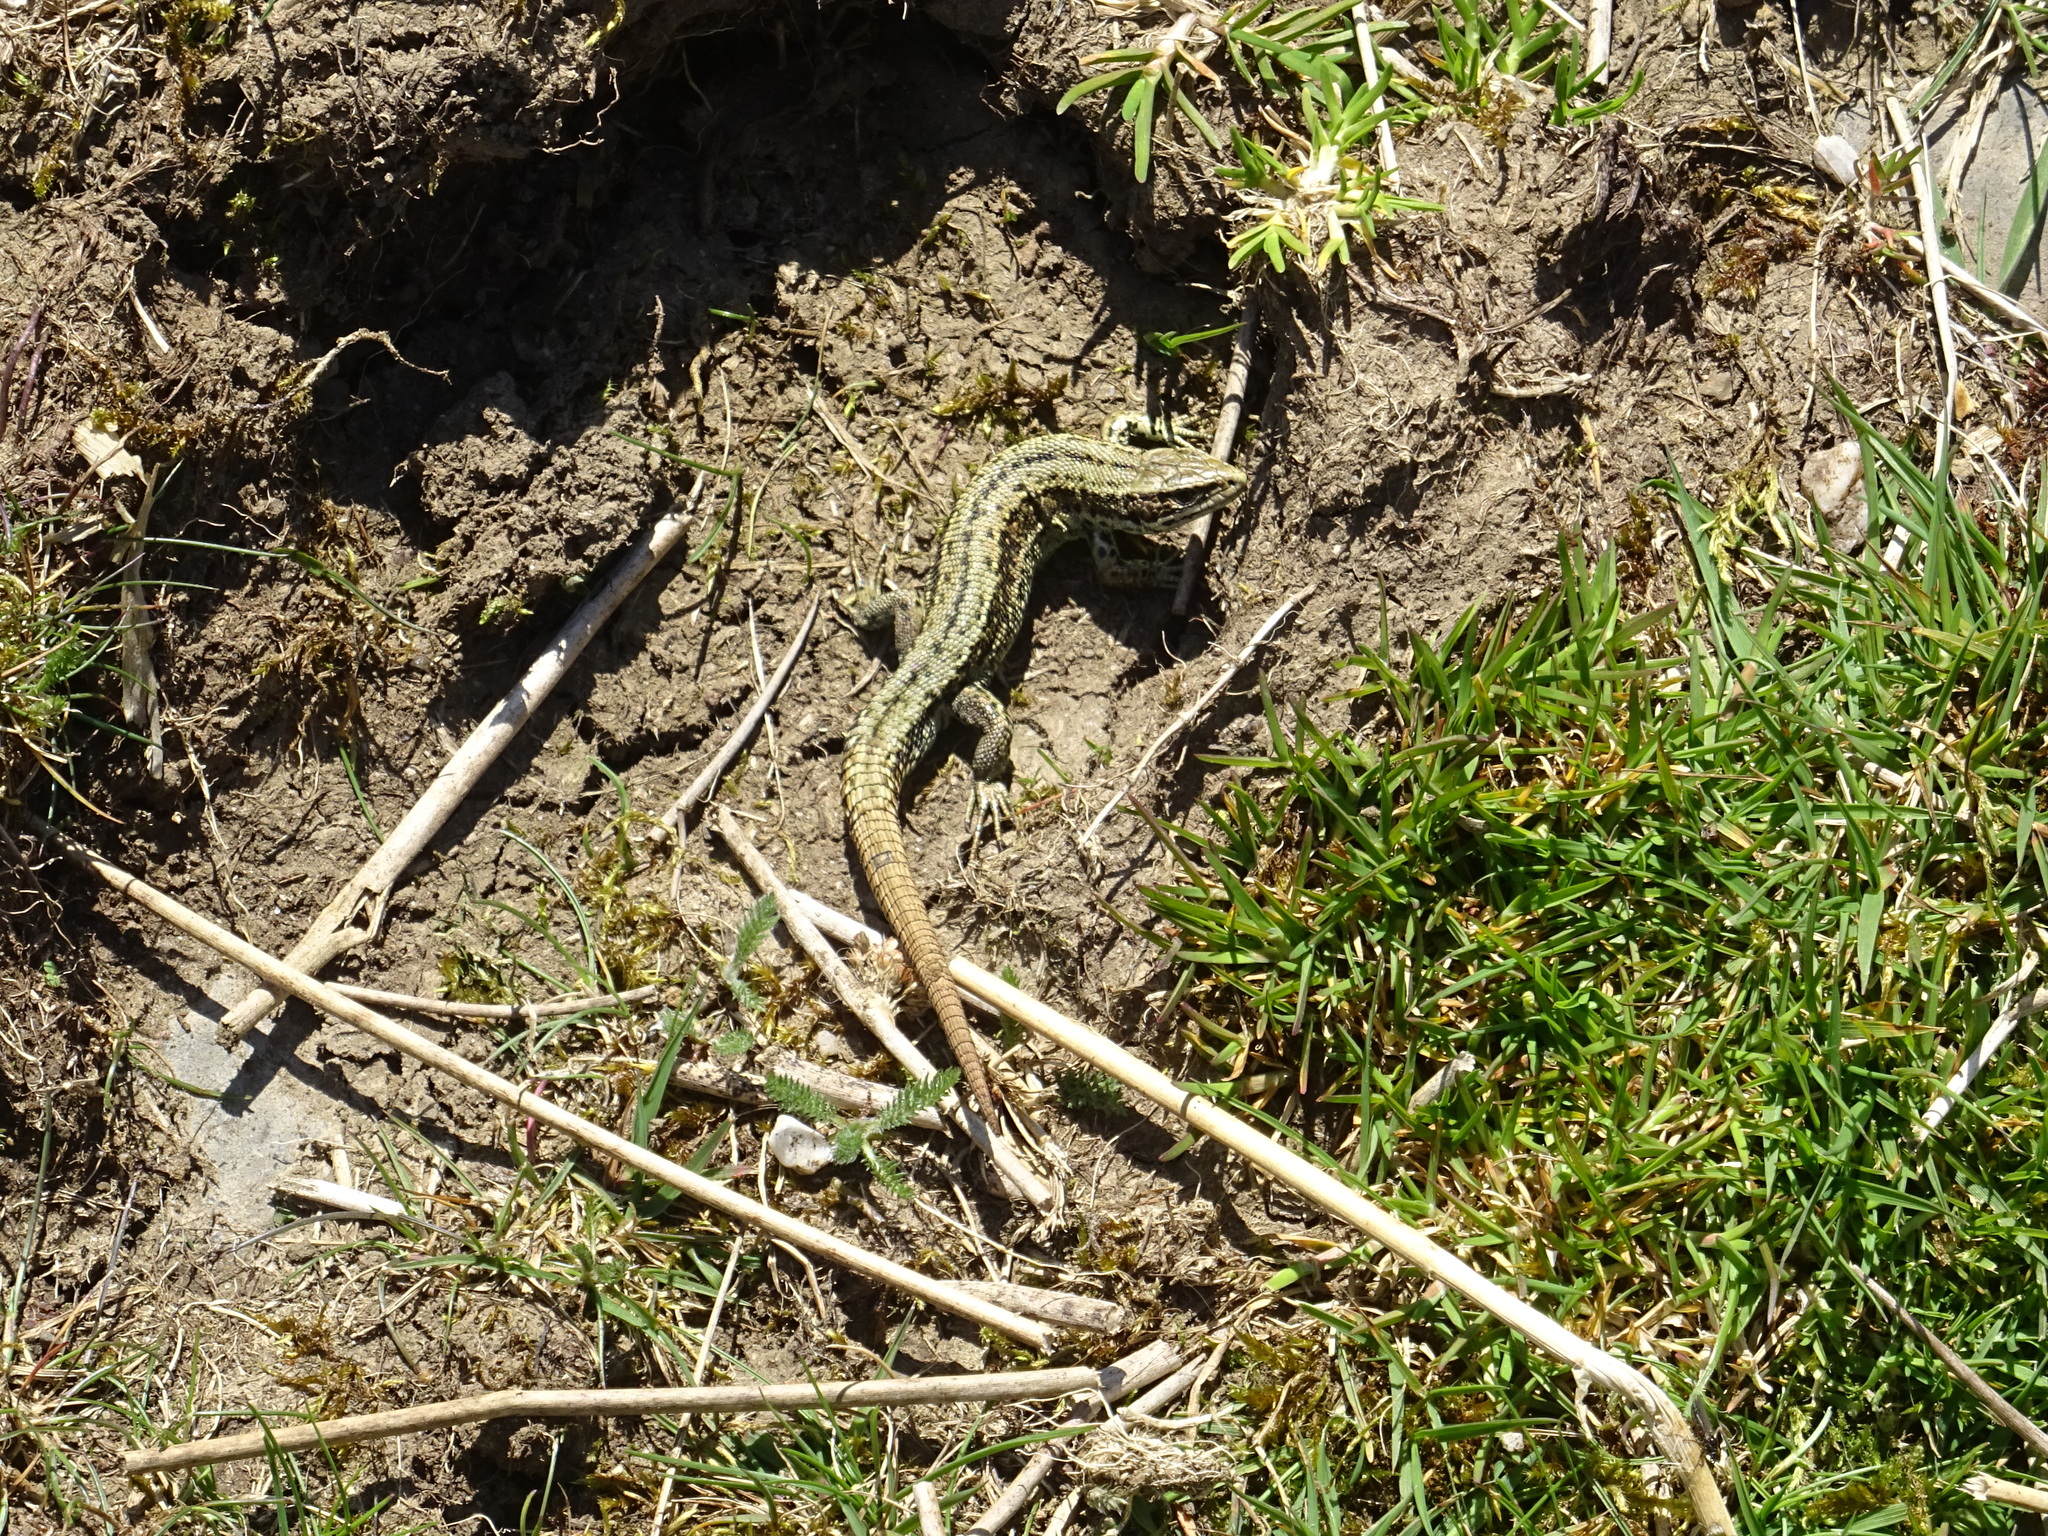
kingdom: Animalia
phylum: Chordata
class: Squamata
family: Lacertidae
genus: Zootoca
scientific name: Zootoca vivipara
